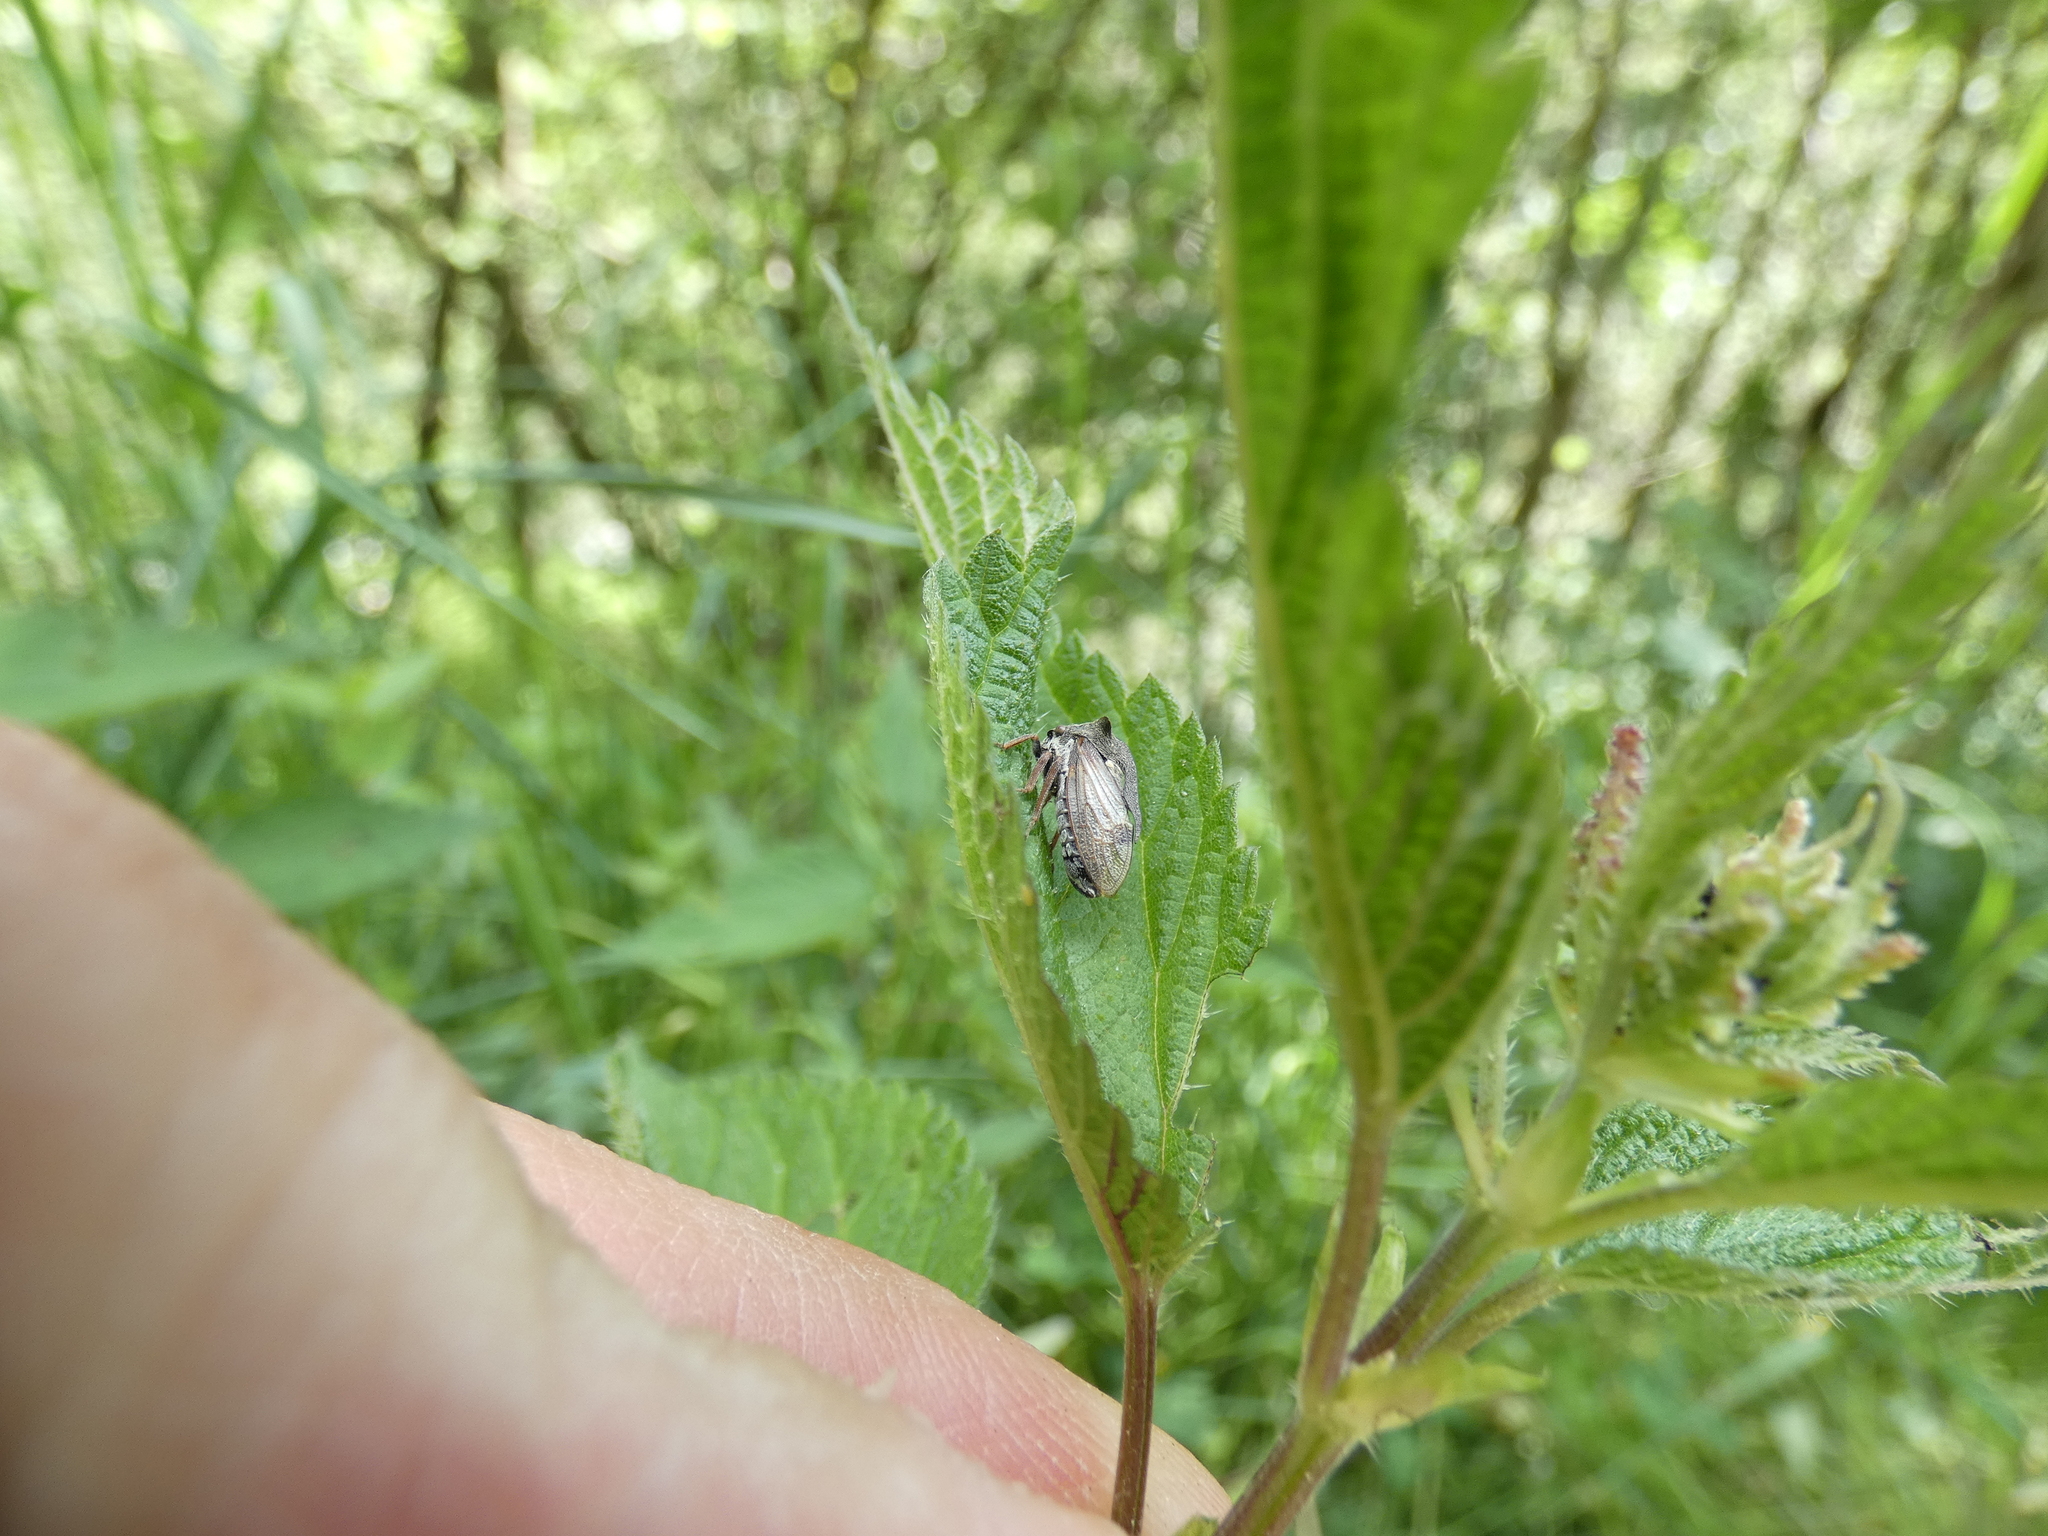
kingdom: Animalia
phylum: Arthropoda
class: Insecta
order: Hemiptera
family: Membracidae
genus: Centrotus
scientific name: Centrotus cornuta
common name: Treehopper
